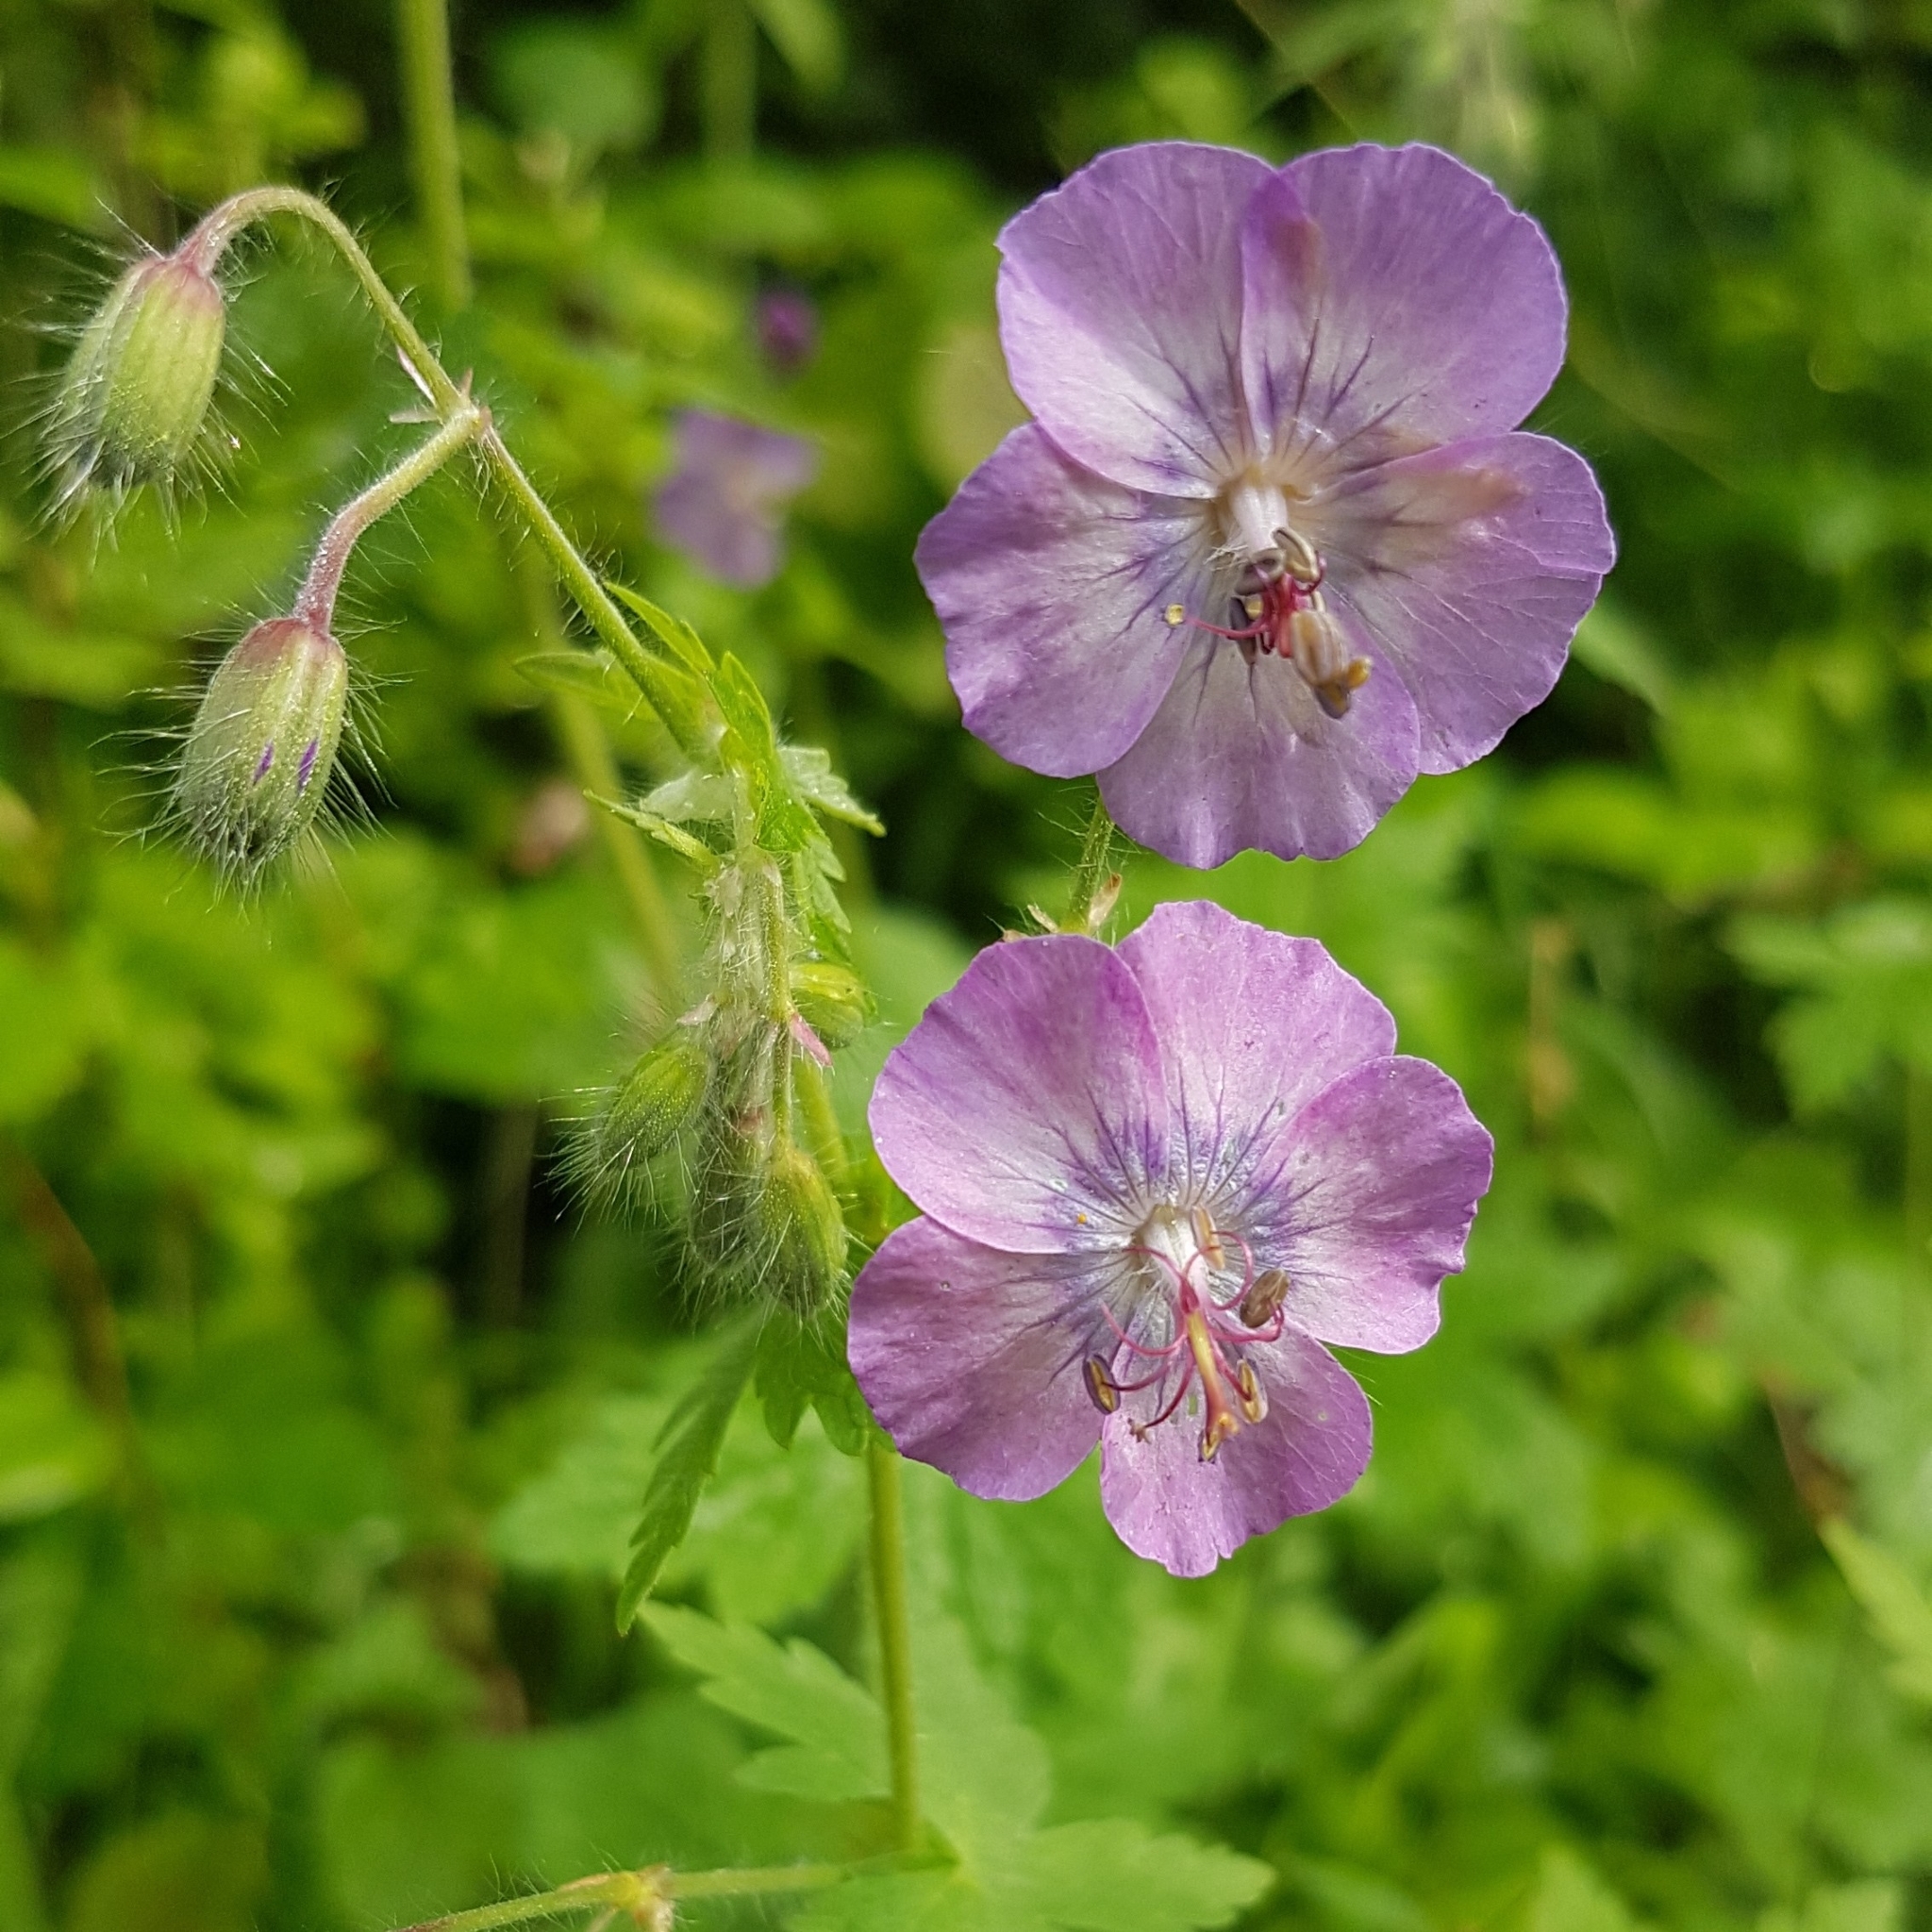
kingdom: Plantae
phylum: Tracheophyta
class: Magnoliopsida
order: Geraniales
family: Geraniaceae
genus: Geranium
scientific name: Geranium phaeum
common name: Dusky crane's-bill
